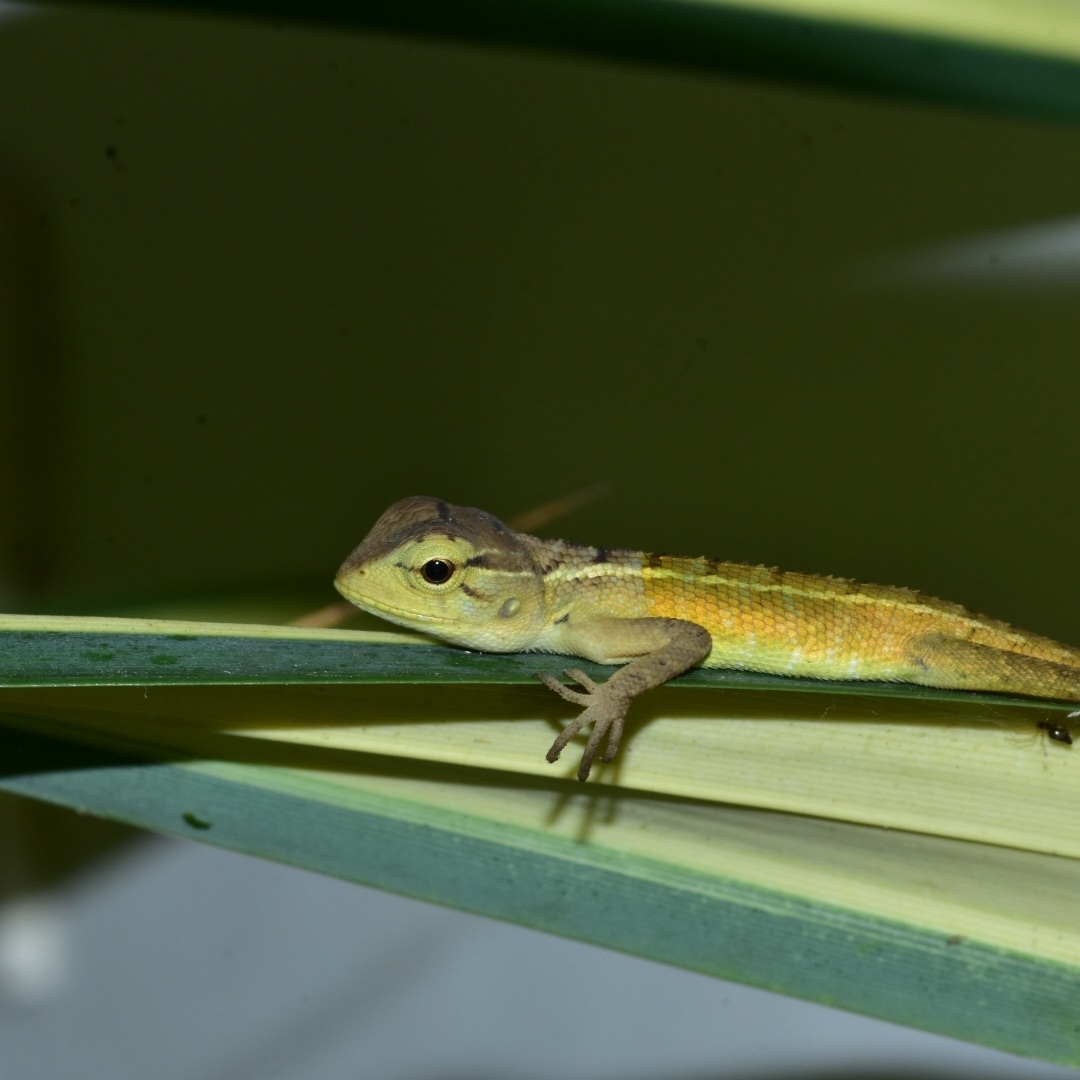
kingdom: Animalia
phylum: Chordata
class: Squamata
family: Agamidae
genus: Calotes
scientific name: Calotes versicolor
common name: Oriental garden lizard
